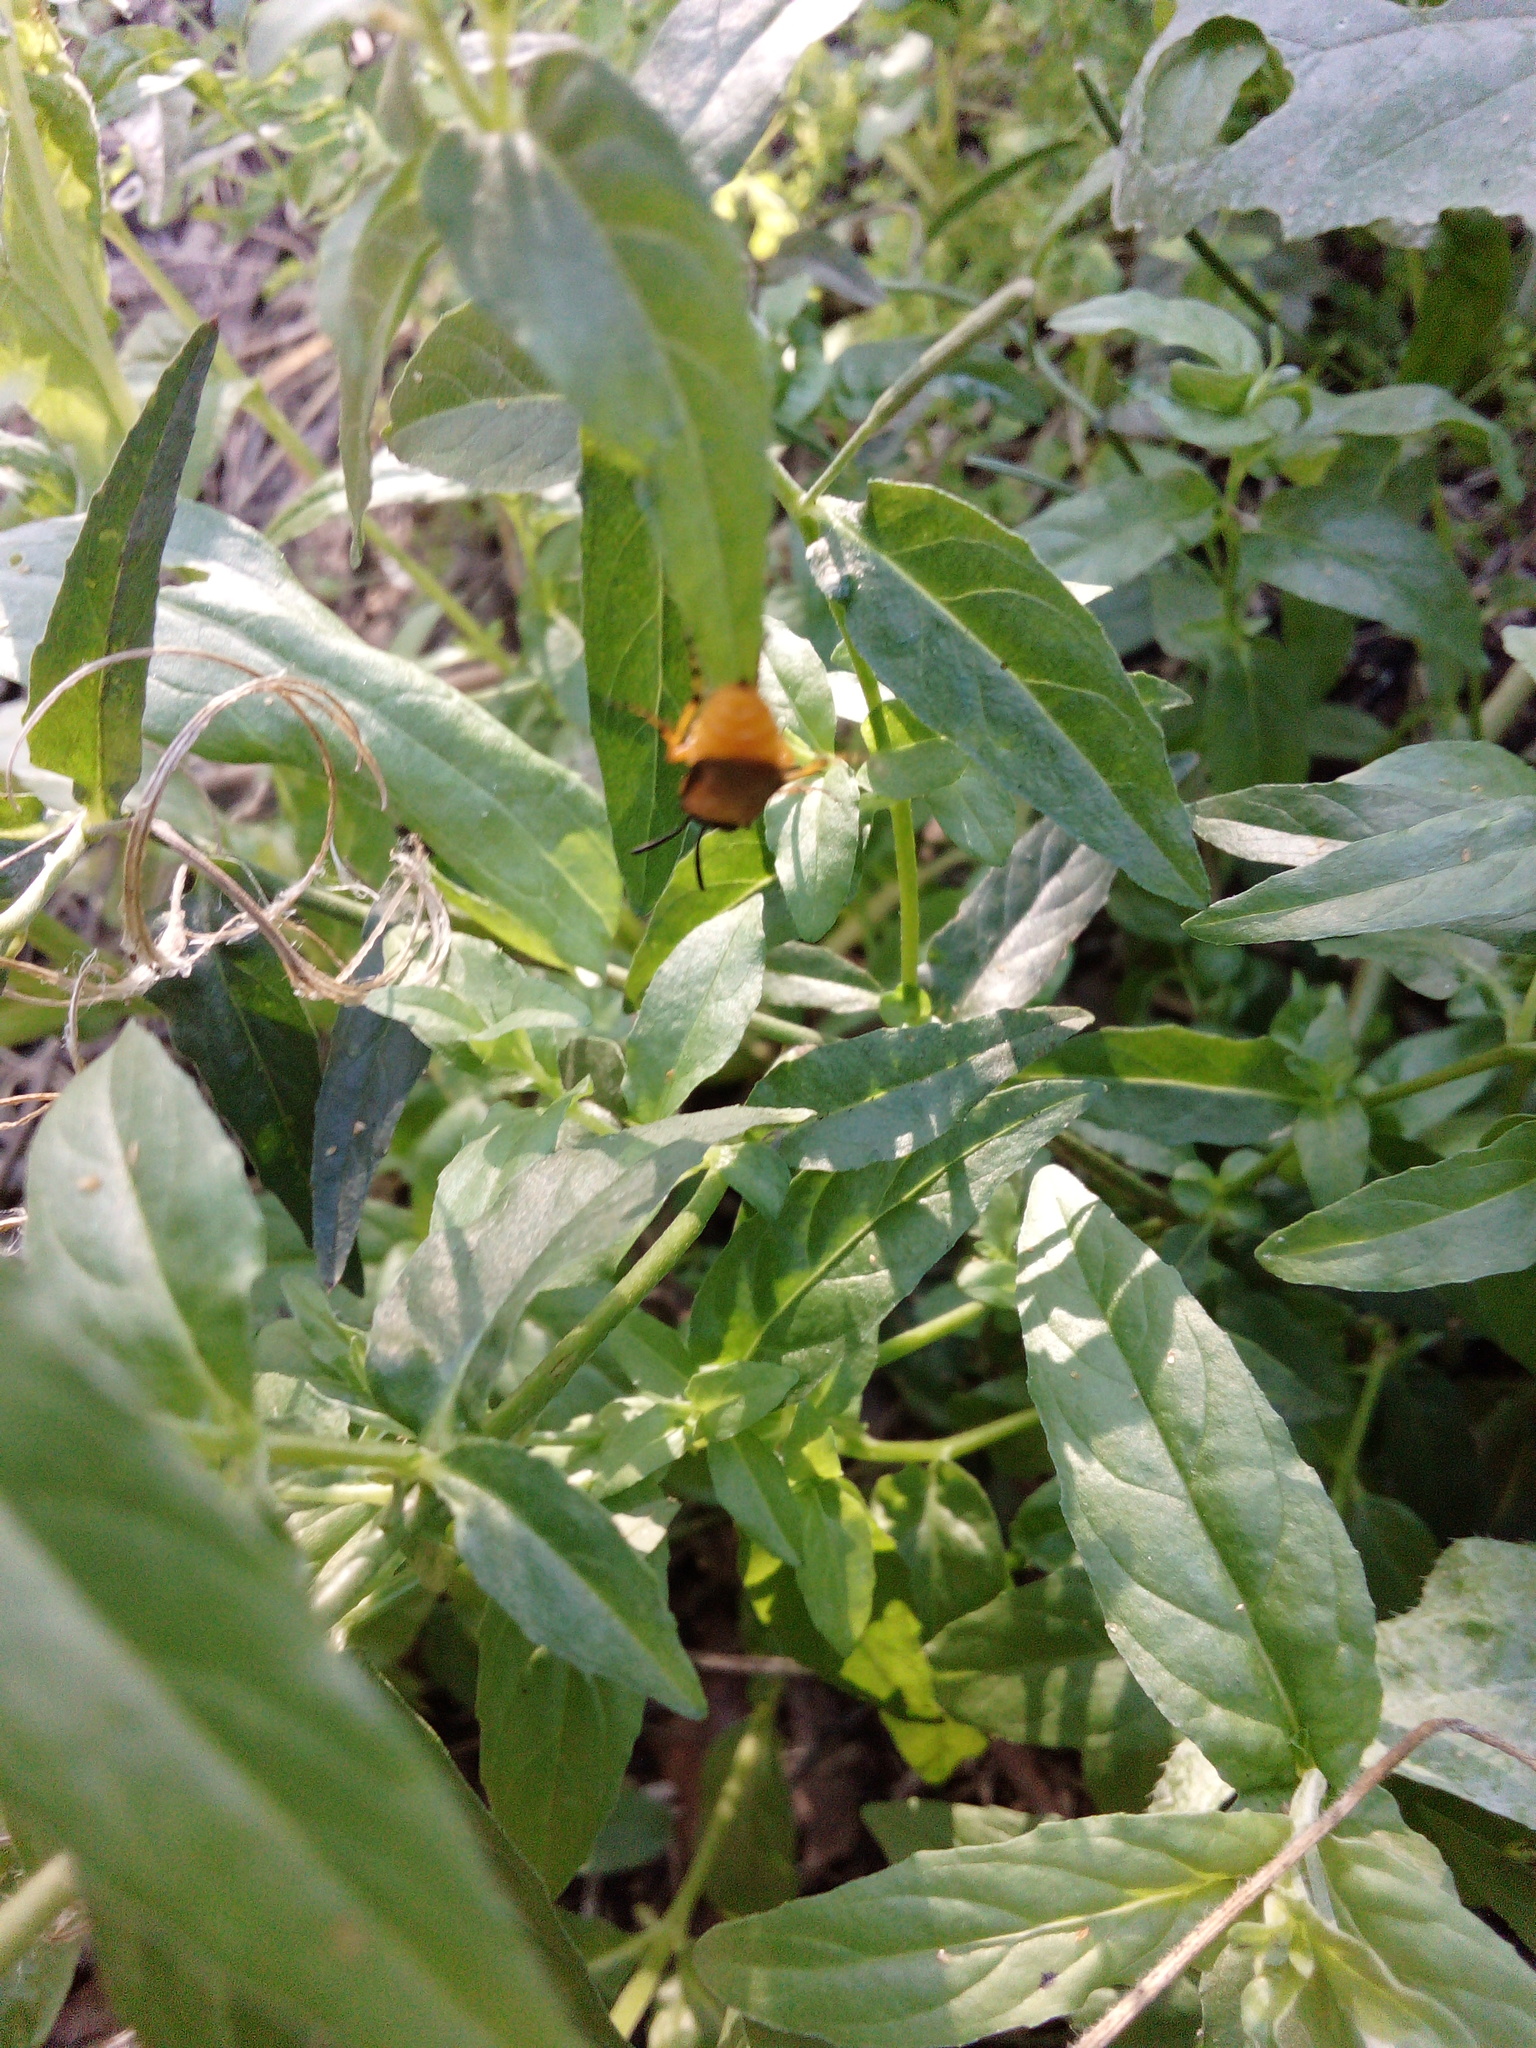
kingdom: Animalia
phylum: Arthropoda
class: Insecta
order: Hymenoptera
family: Argidae
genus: Arge
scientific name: Arge ochropus
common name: Argid sawfly
